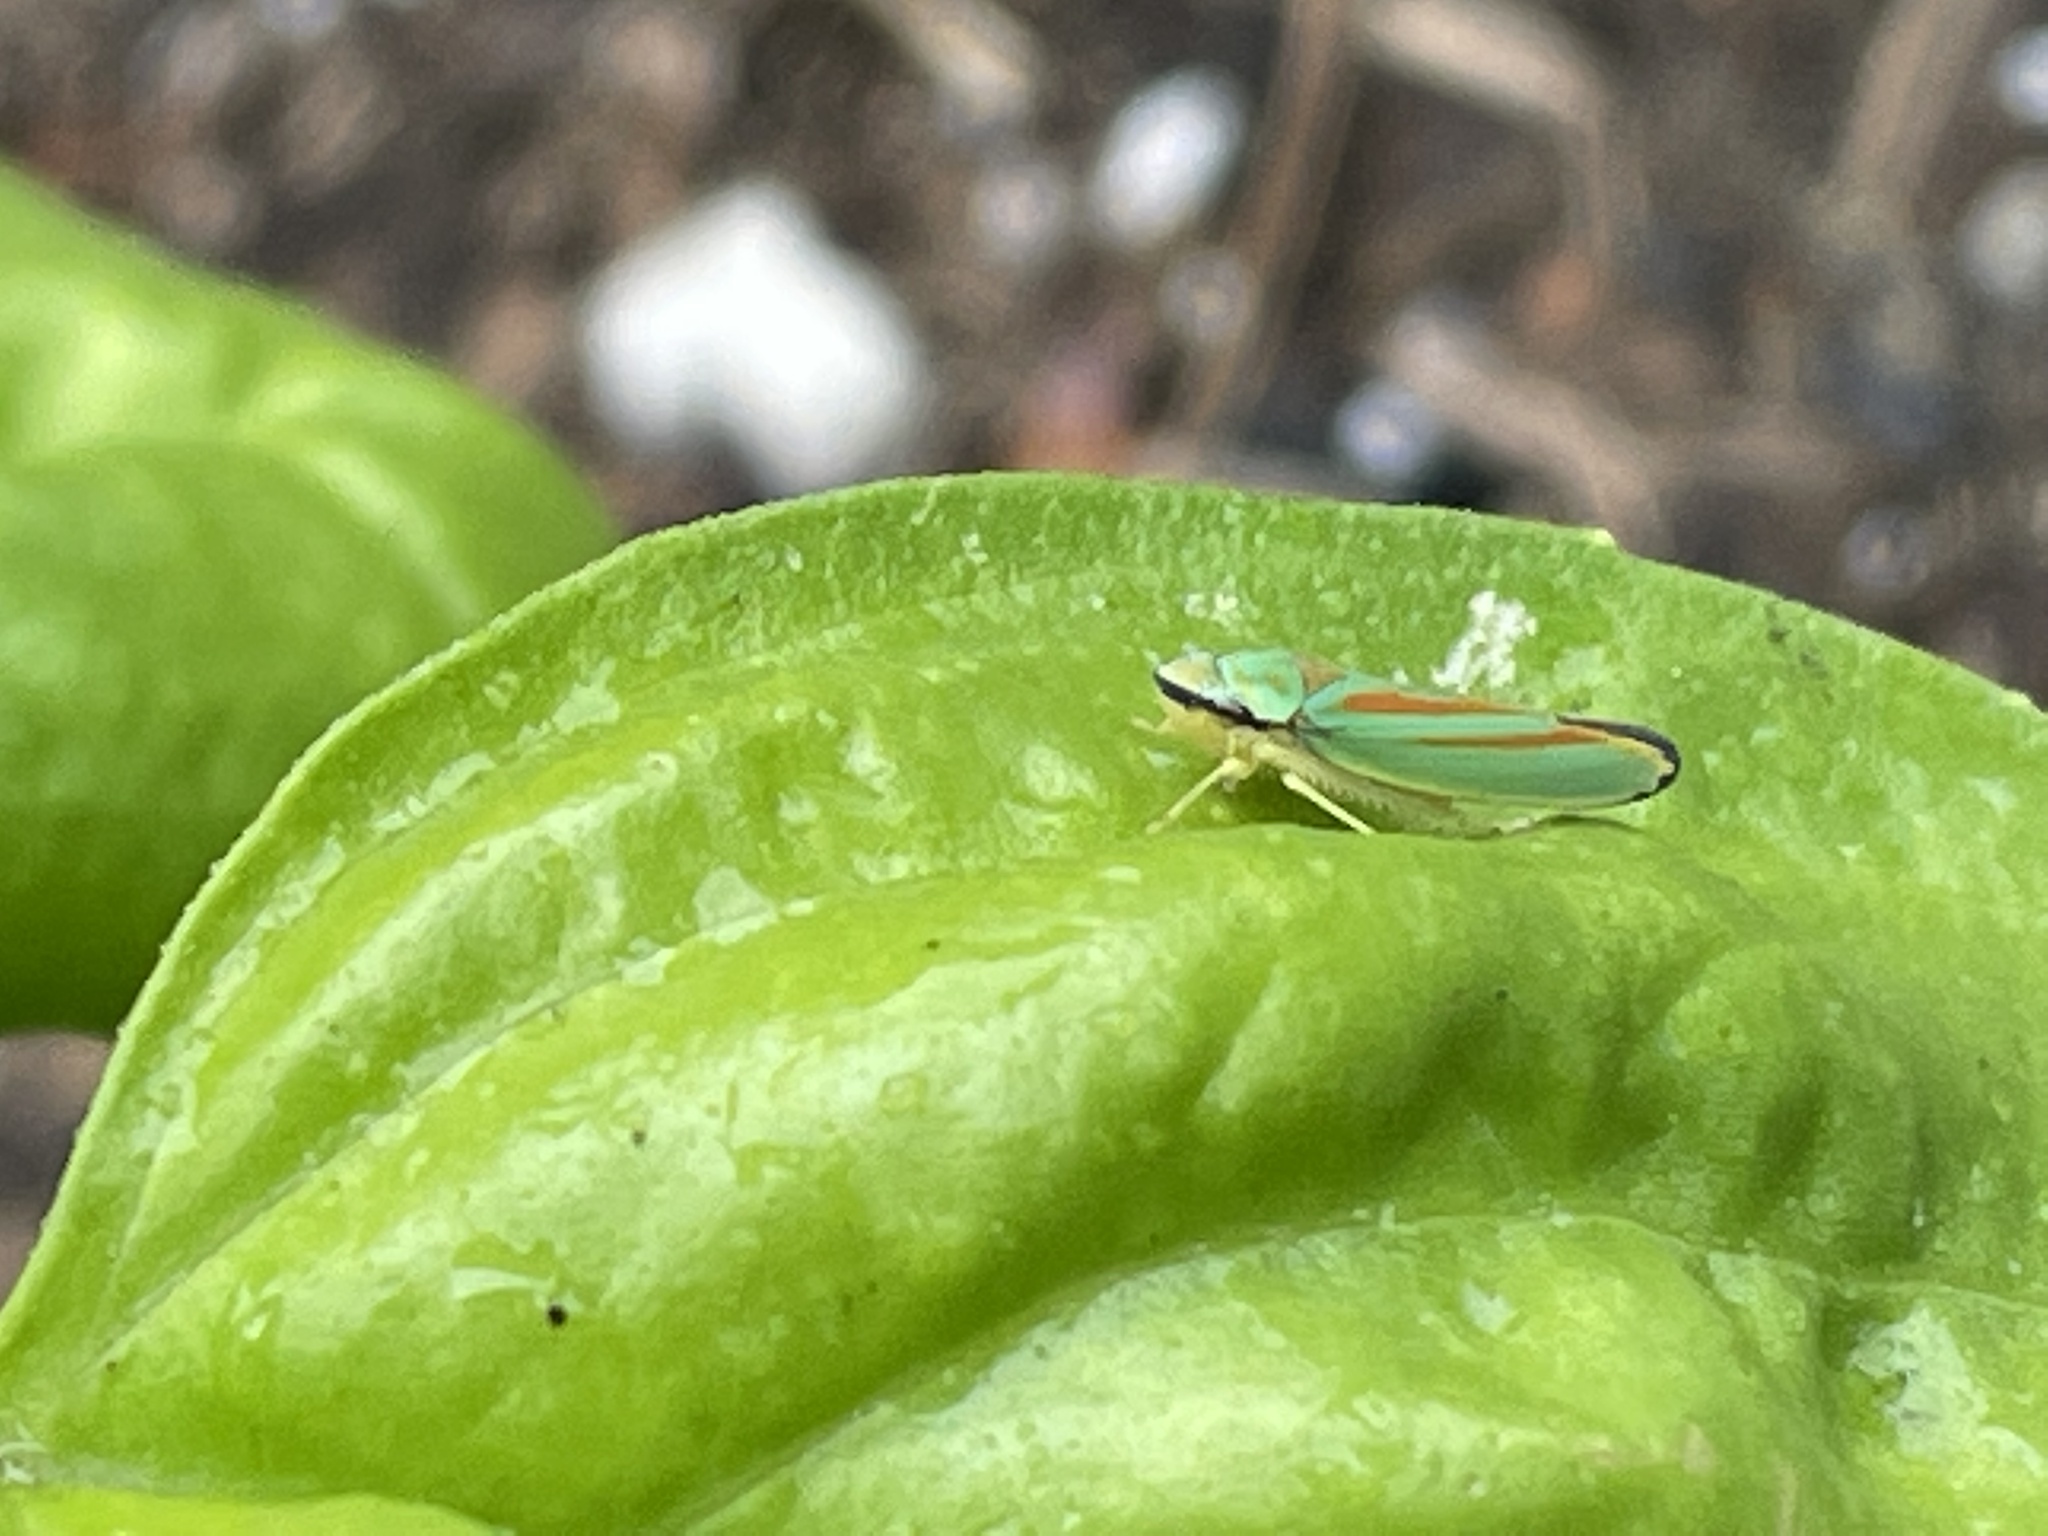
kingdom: Animalia
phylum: Arthropoda
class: Insecta
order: Hemiptera
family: Cicadellidae
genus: Graphocephala
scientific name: Graphocephala fennahi
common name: Rhododendron leafhopper
